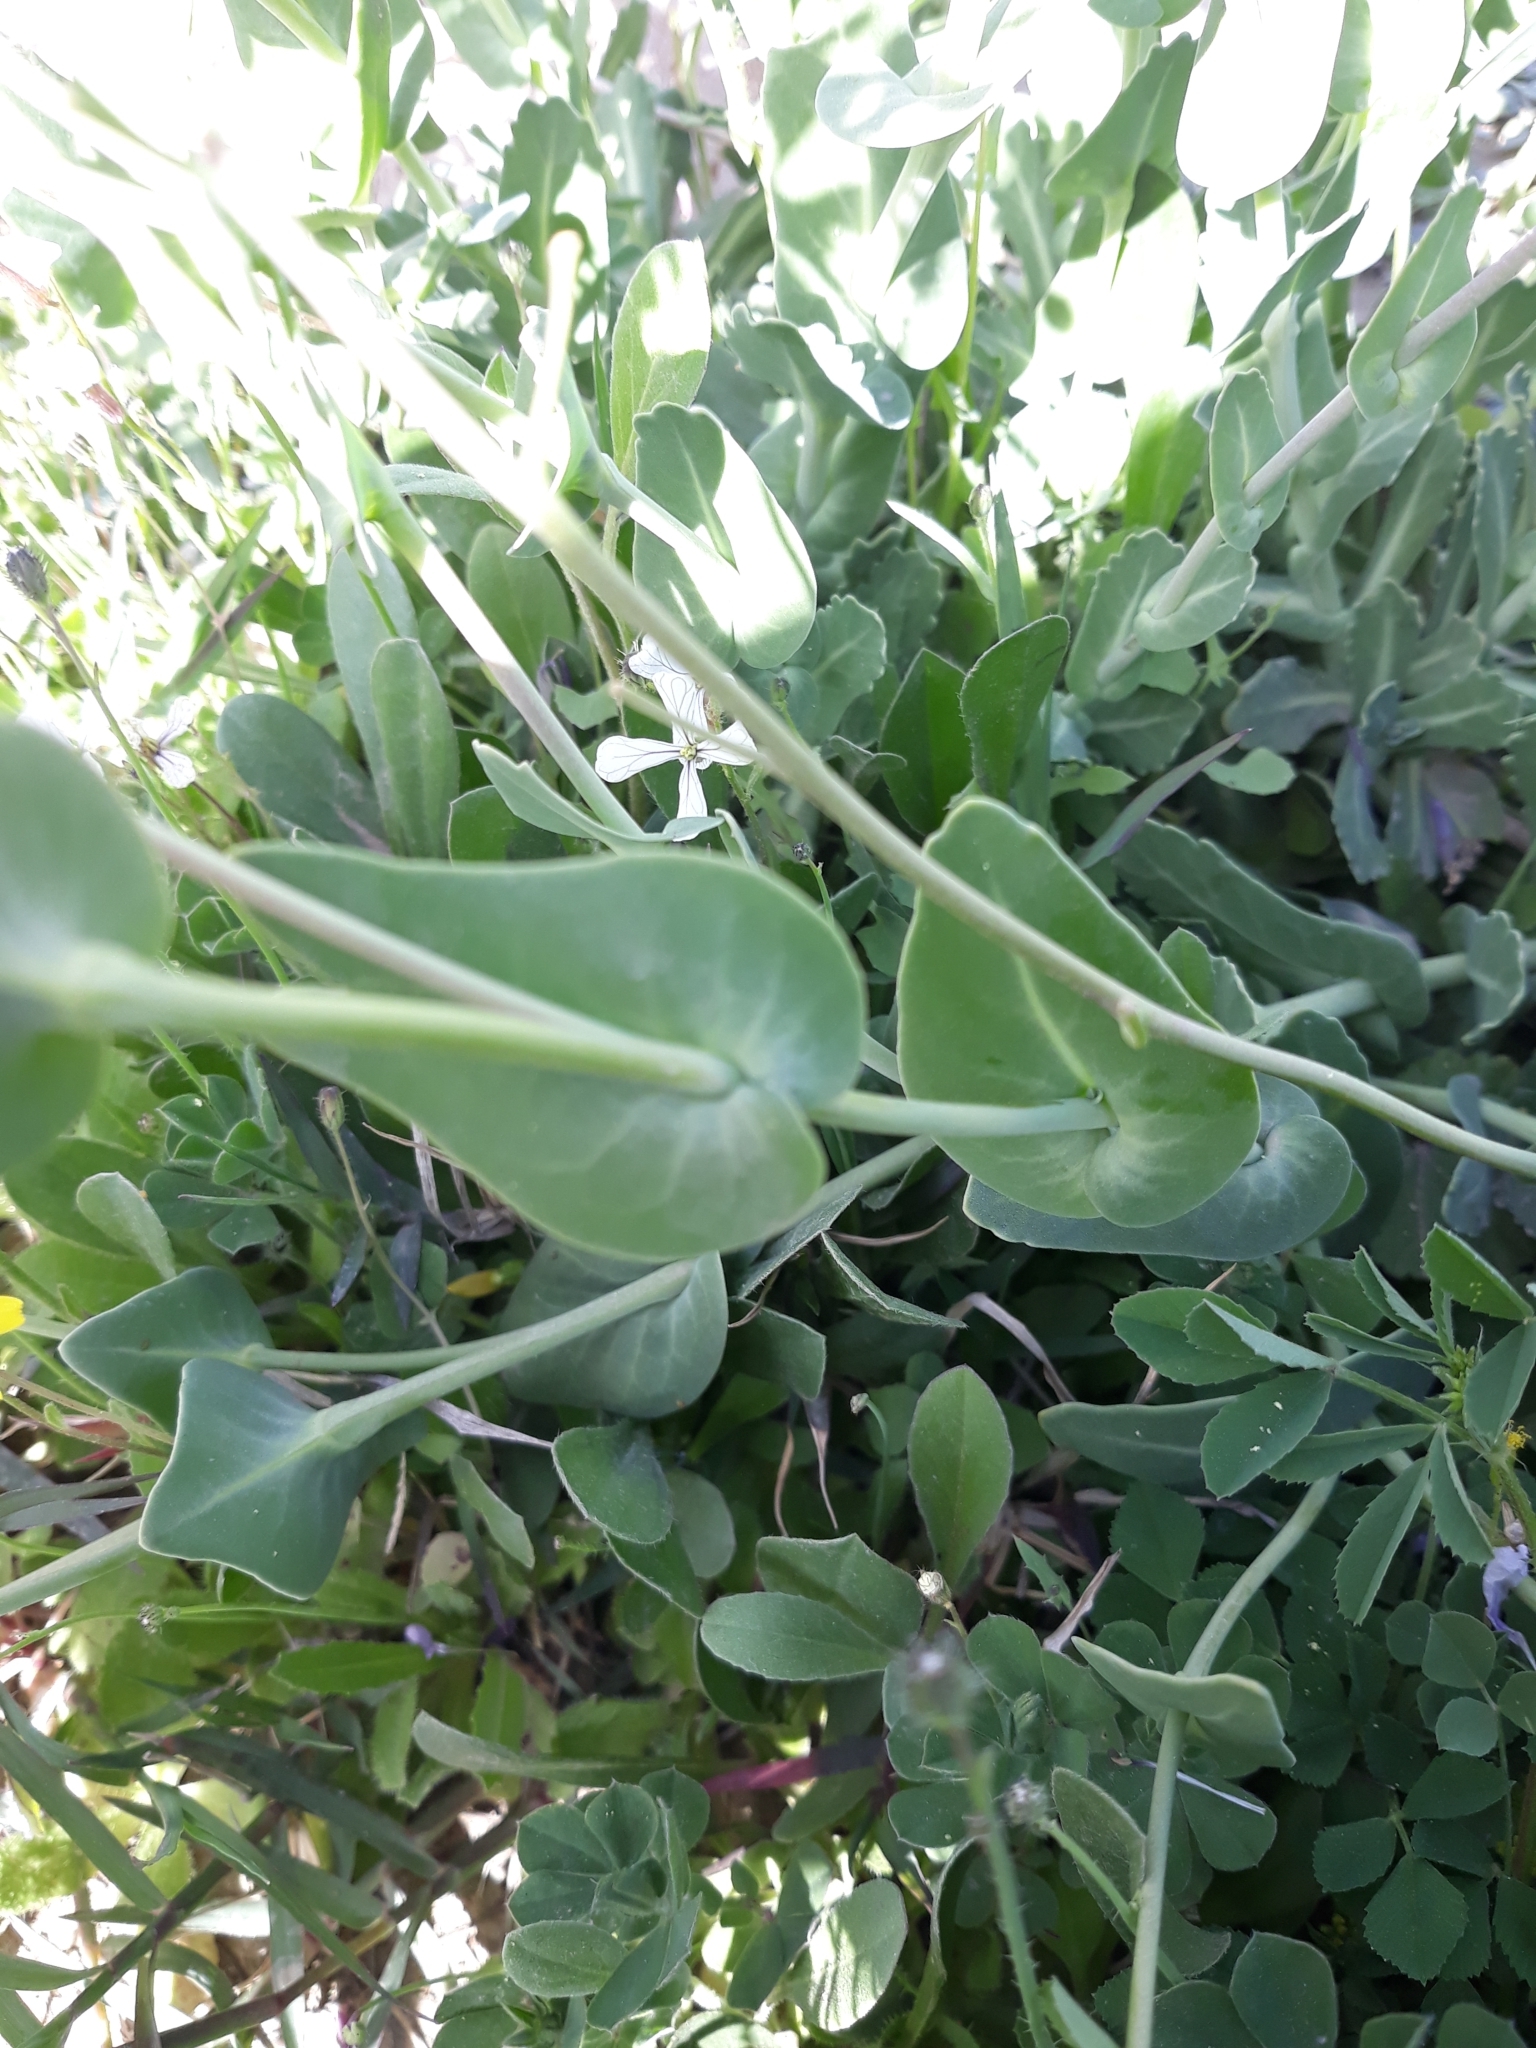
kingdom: Plantae
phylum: Tracheophyta
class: Magnoliopsida
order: Brassicales
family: Brassicaceae
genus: Moricandia
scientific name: Moricandia arvensis
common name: Purple mistress
